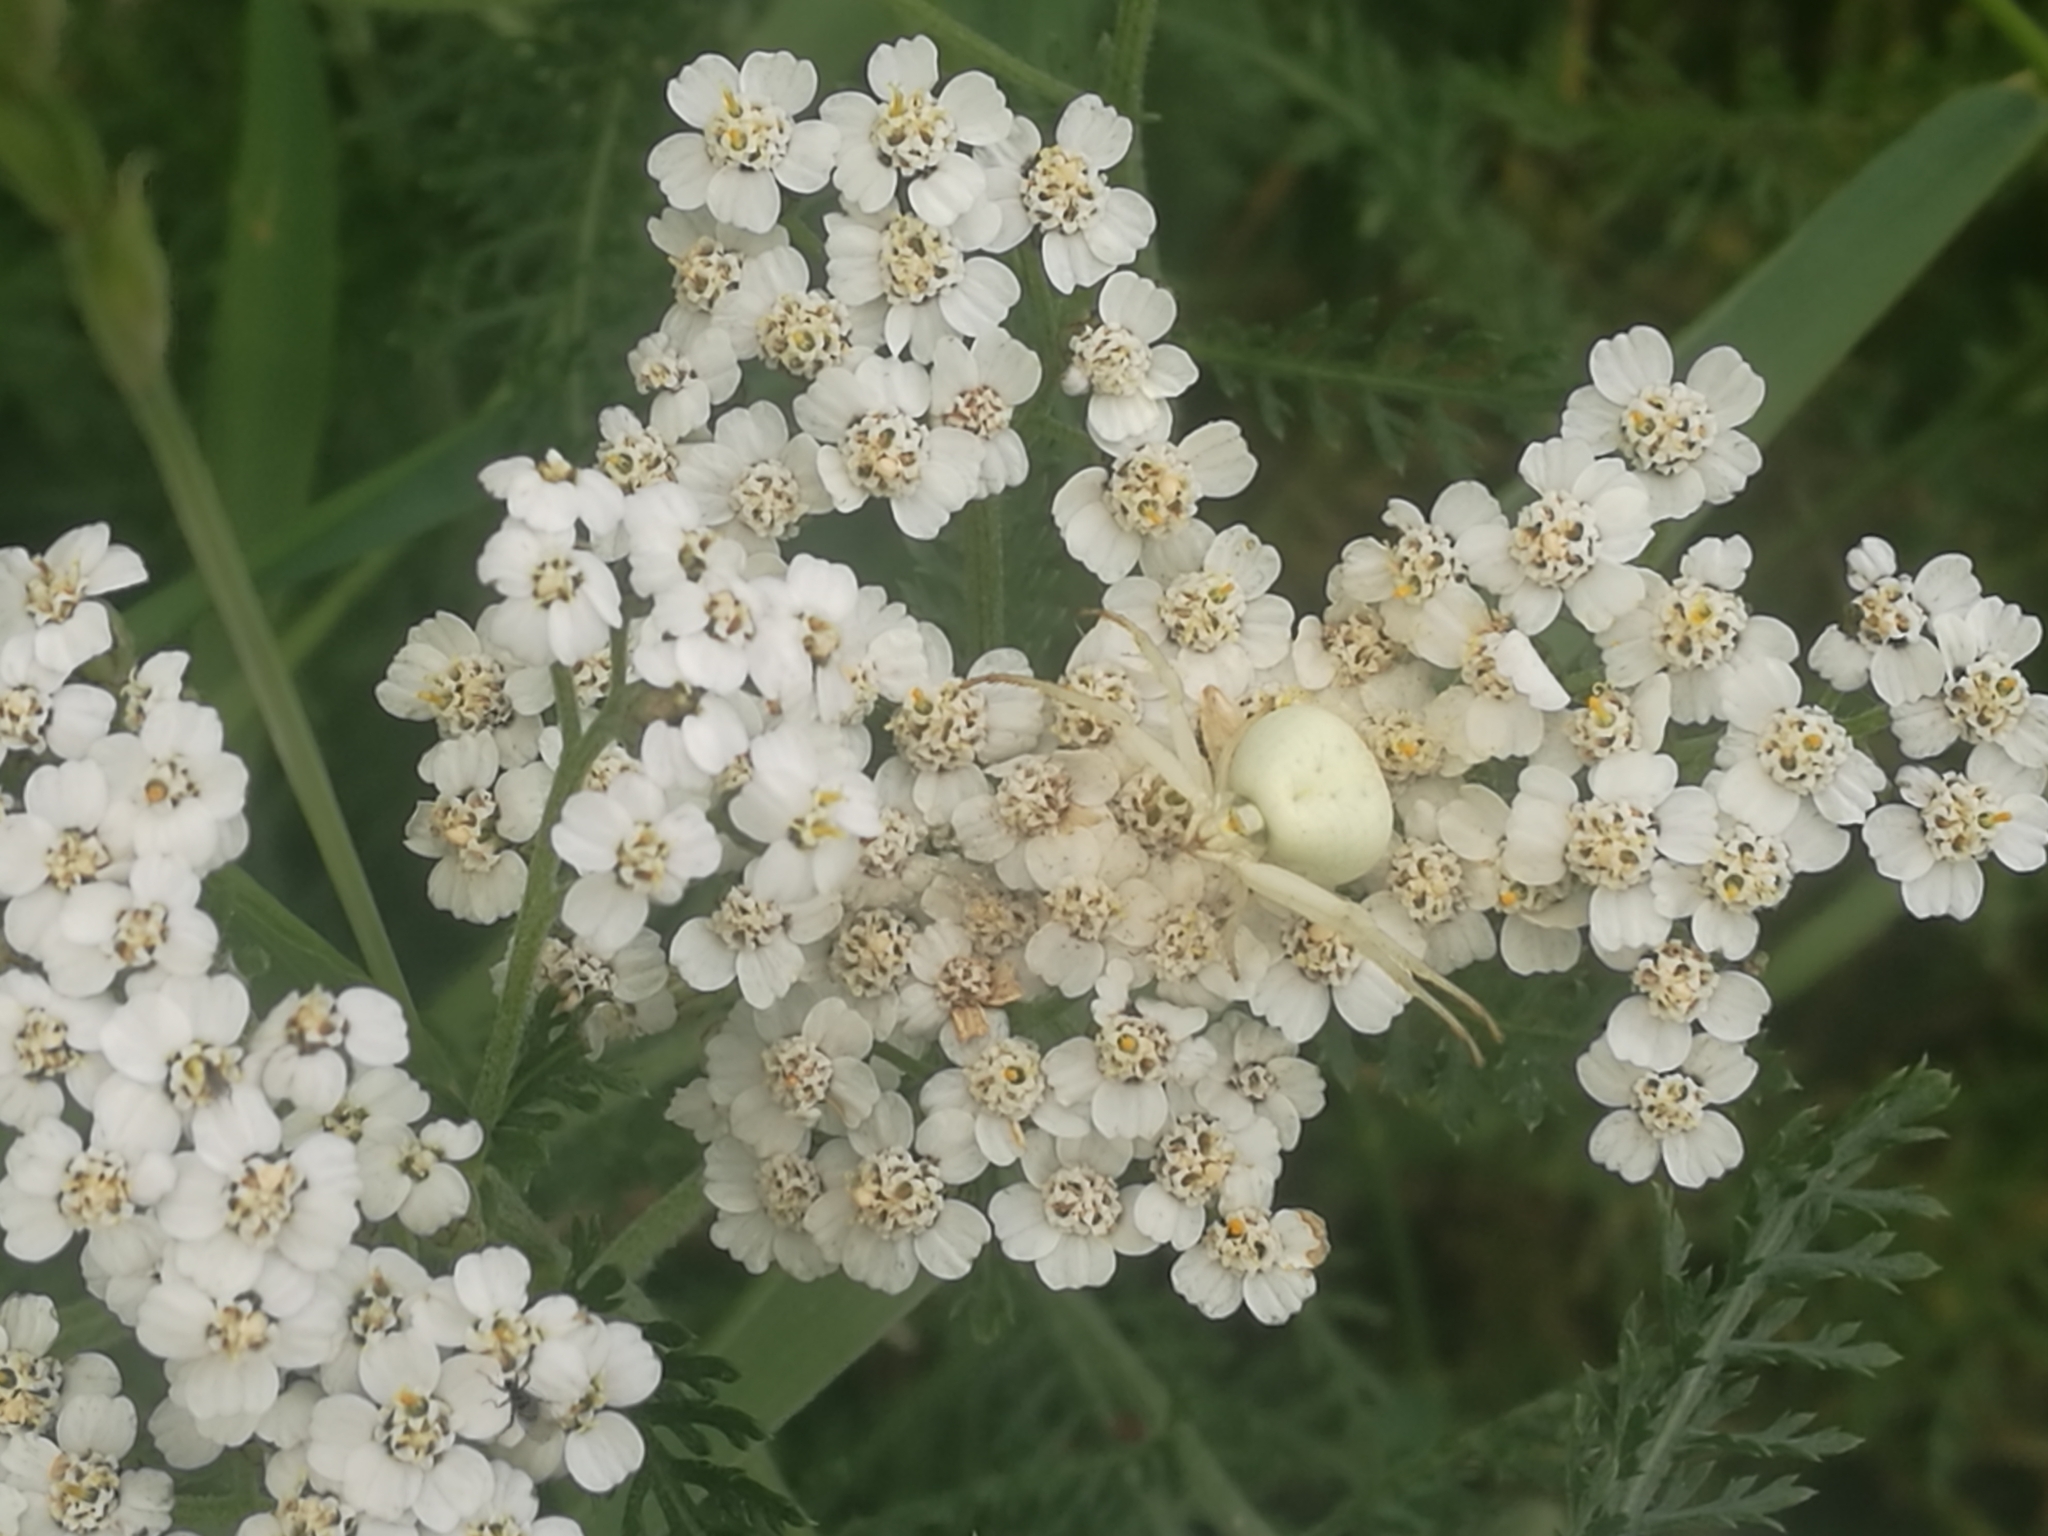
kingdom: Animalia
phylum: Arthropoda
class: Arachnida
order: Araneae
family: Thomisidae
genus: Misumena
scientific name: Misumena vatia
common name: Goldenrod crab spider
